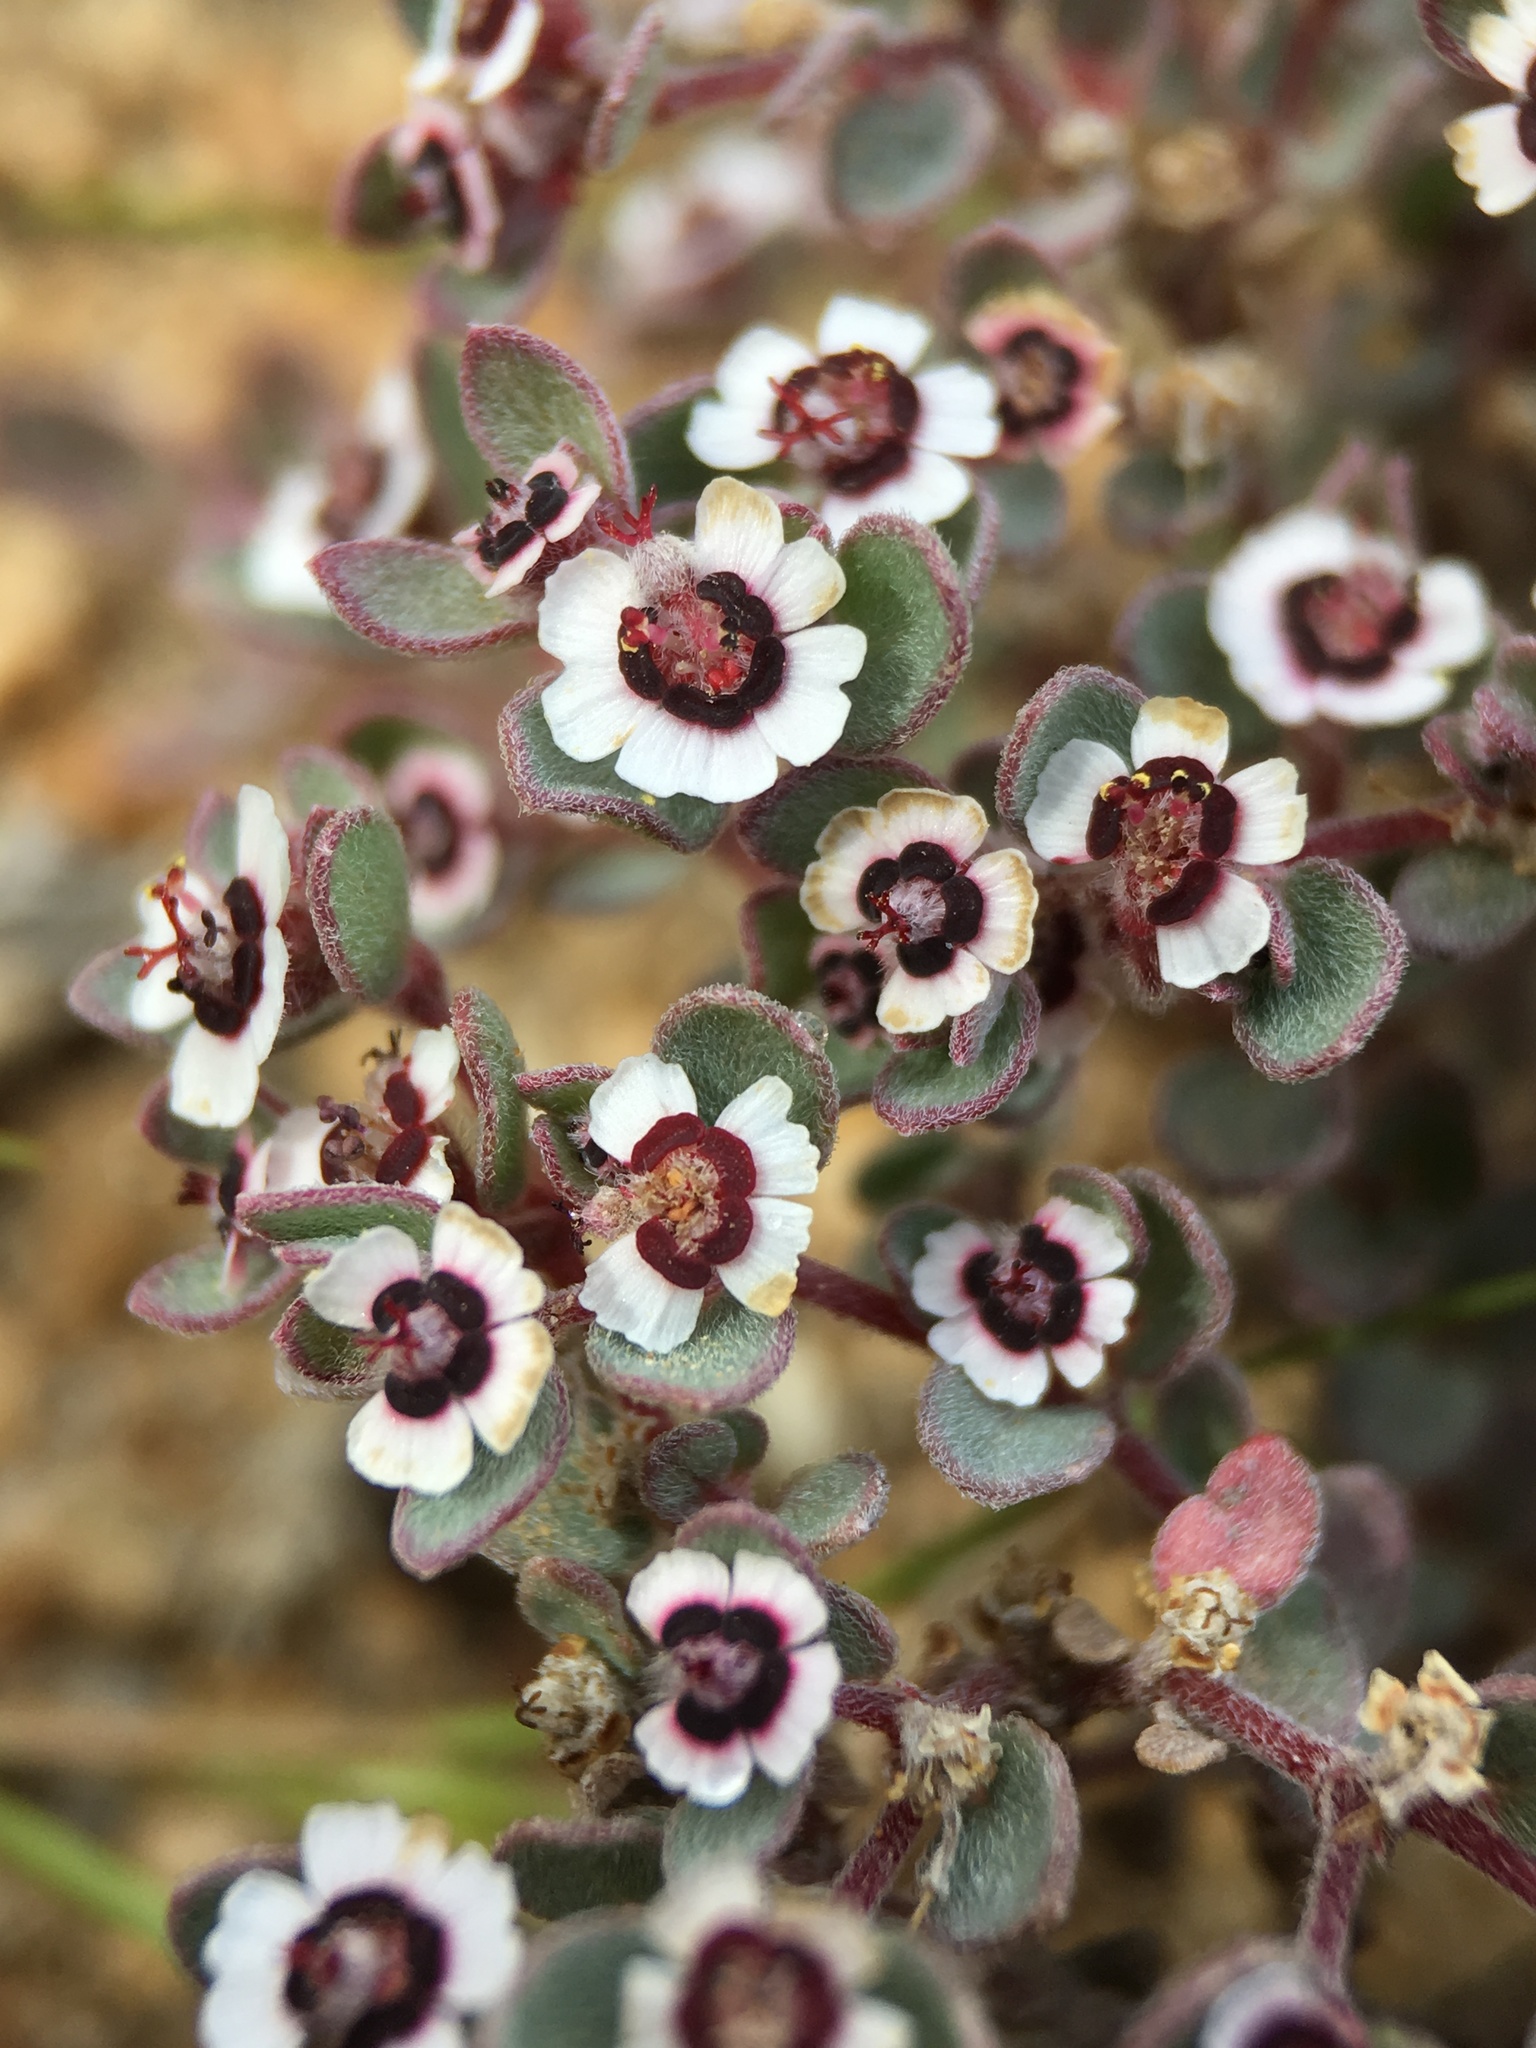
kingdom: Plantae
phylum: Tracheophyta
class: Magnoliopsida
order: Malpighiales
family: Euphorbiaceae
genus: Euphorbia
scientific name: Euphorbia melanadenia
